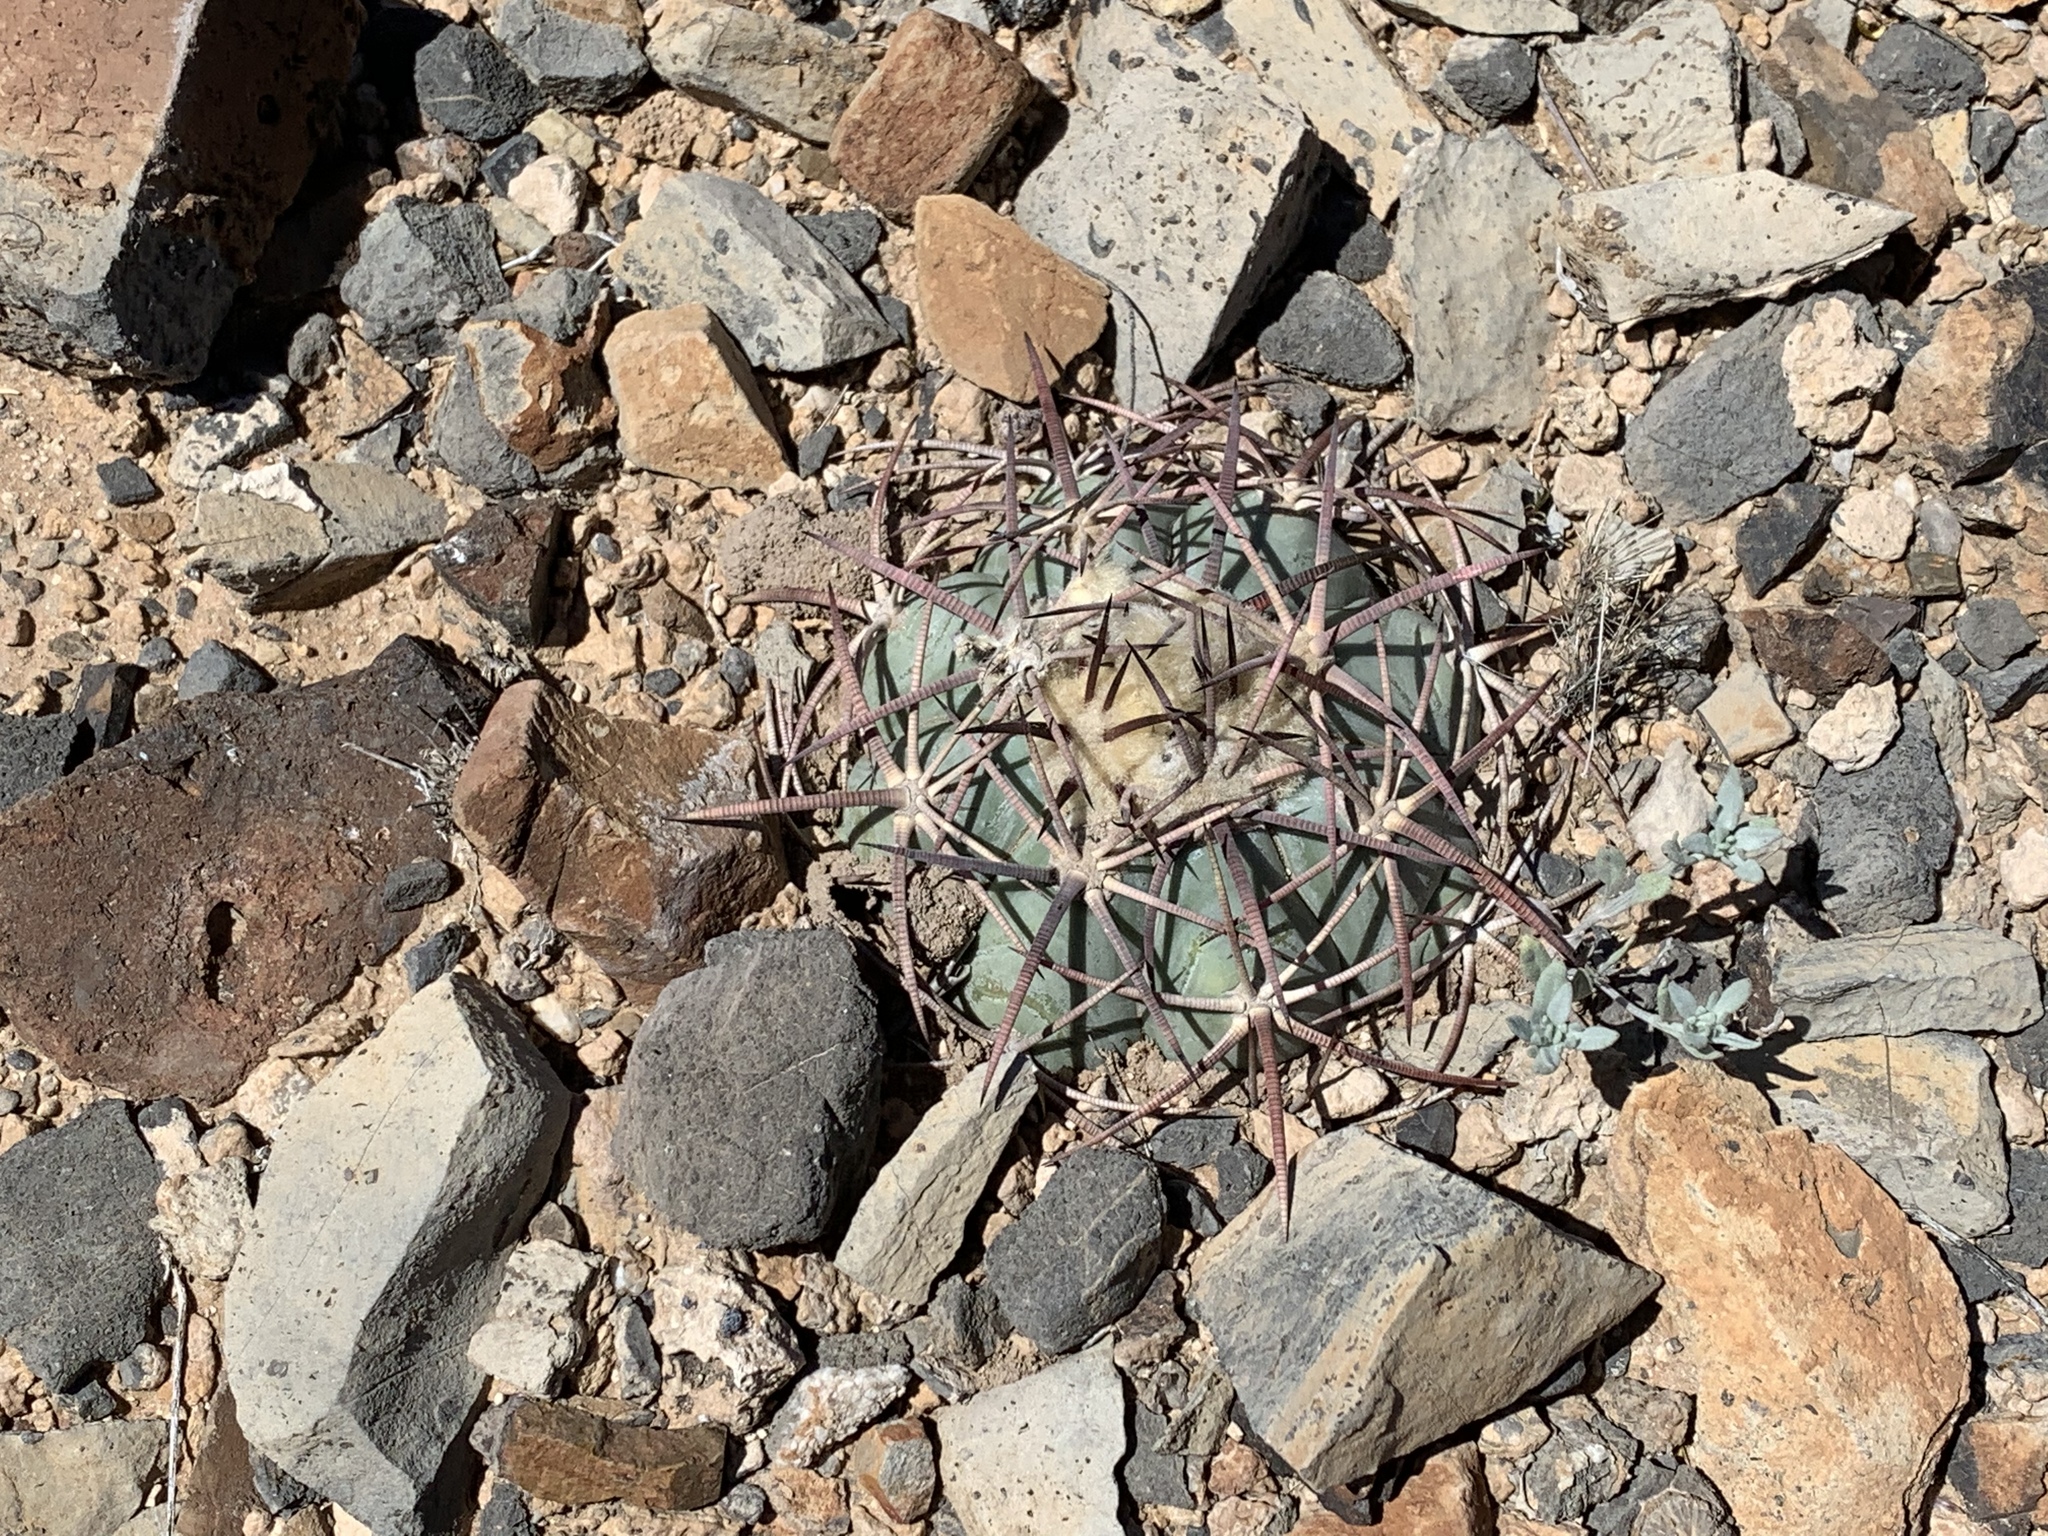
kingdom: Plantae
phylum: Tracheophyta
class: Magnoliopsida
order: Caryophyllales
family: Cactaceae
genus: Echinocactus
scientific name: Echinocactus horizonthalonius
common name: Devilshead
